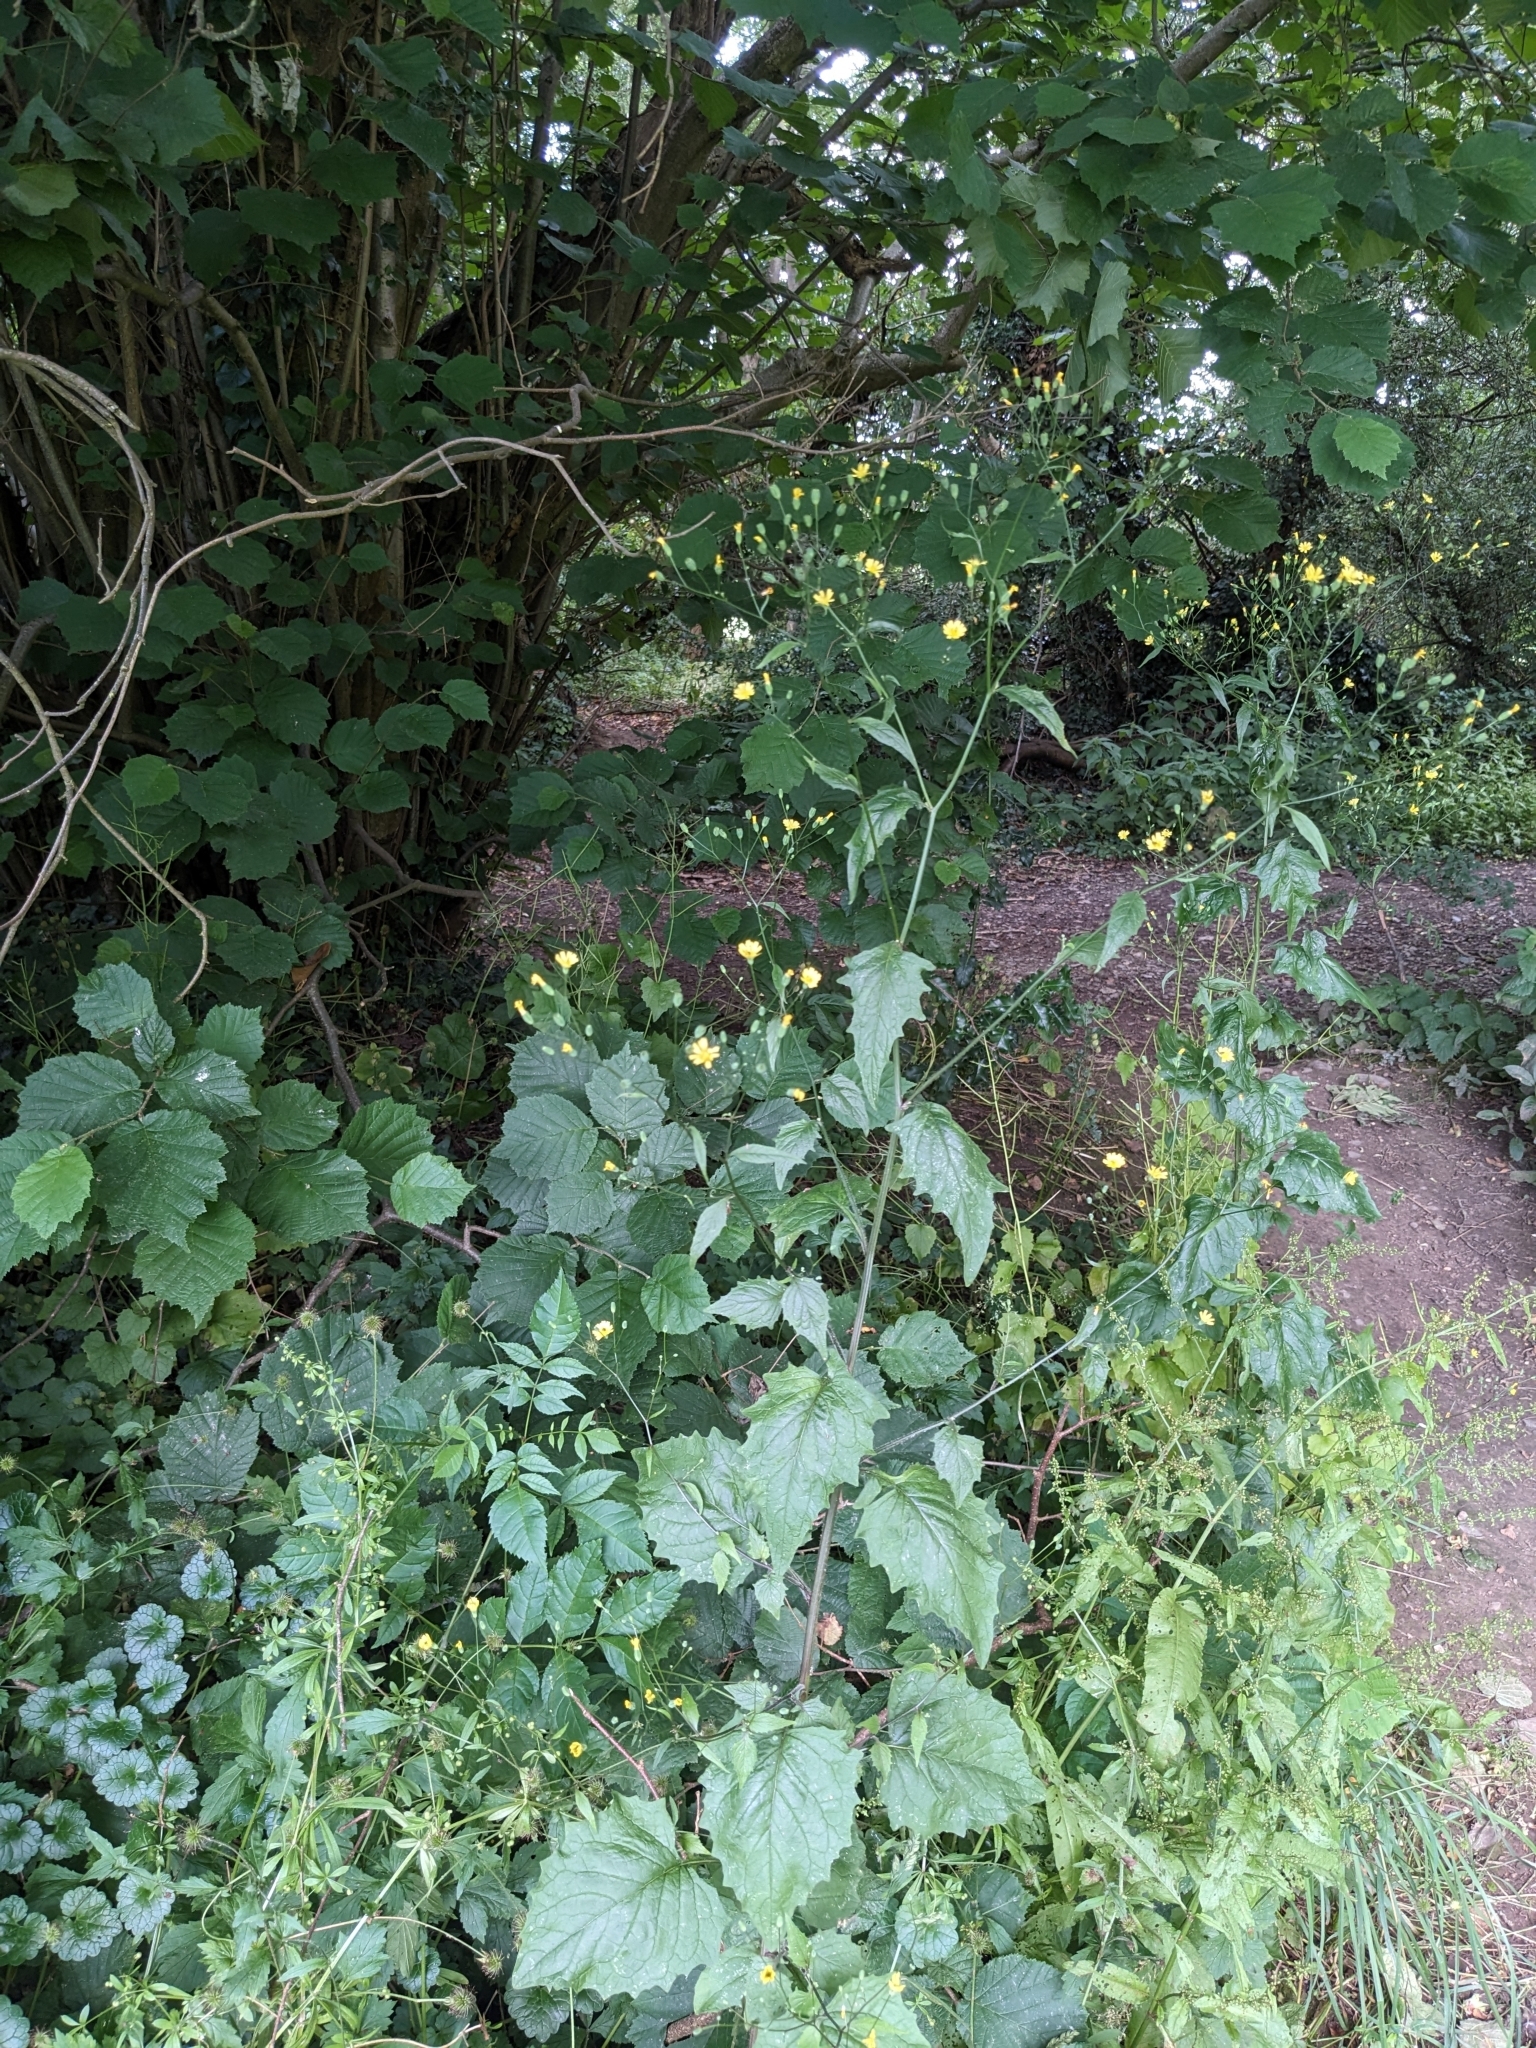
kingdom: Plantae
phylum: Tracheophyta
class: Magnoliopsida
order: Asterales
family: Asteraceae
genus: Lapsana
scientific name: Lapsana communis
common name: Nipplewort
